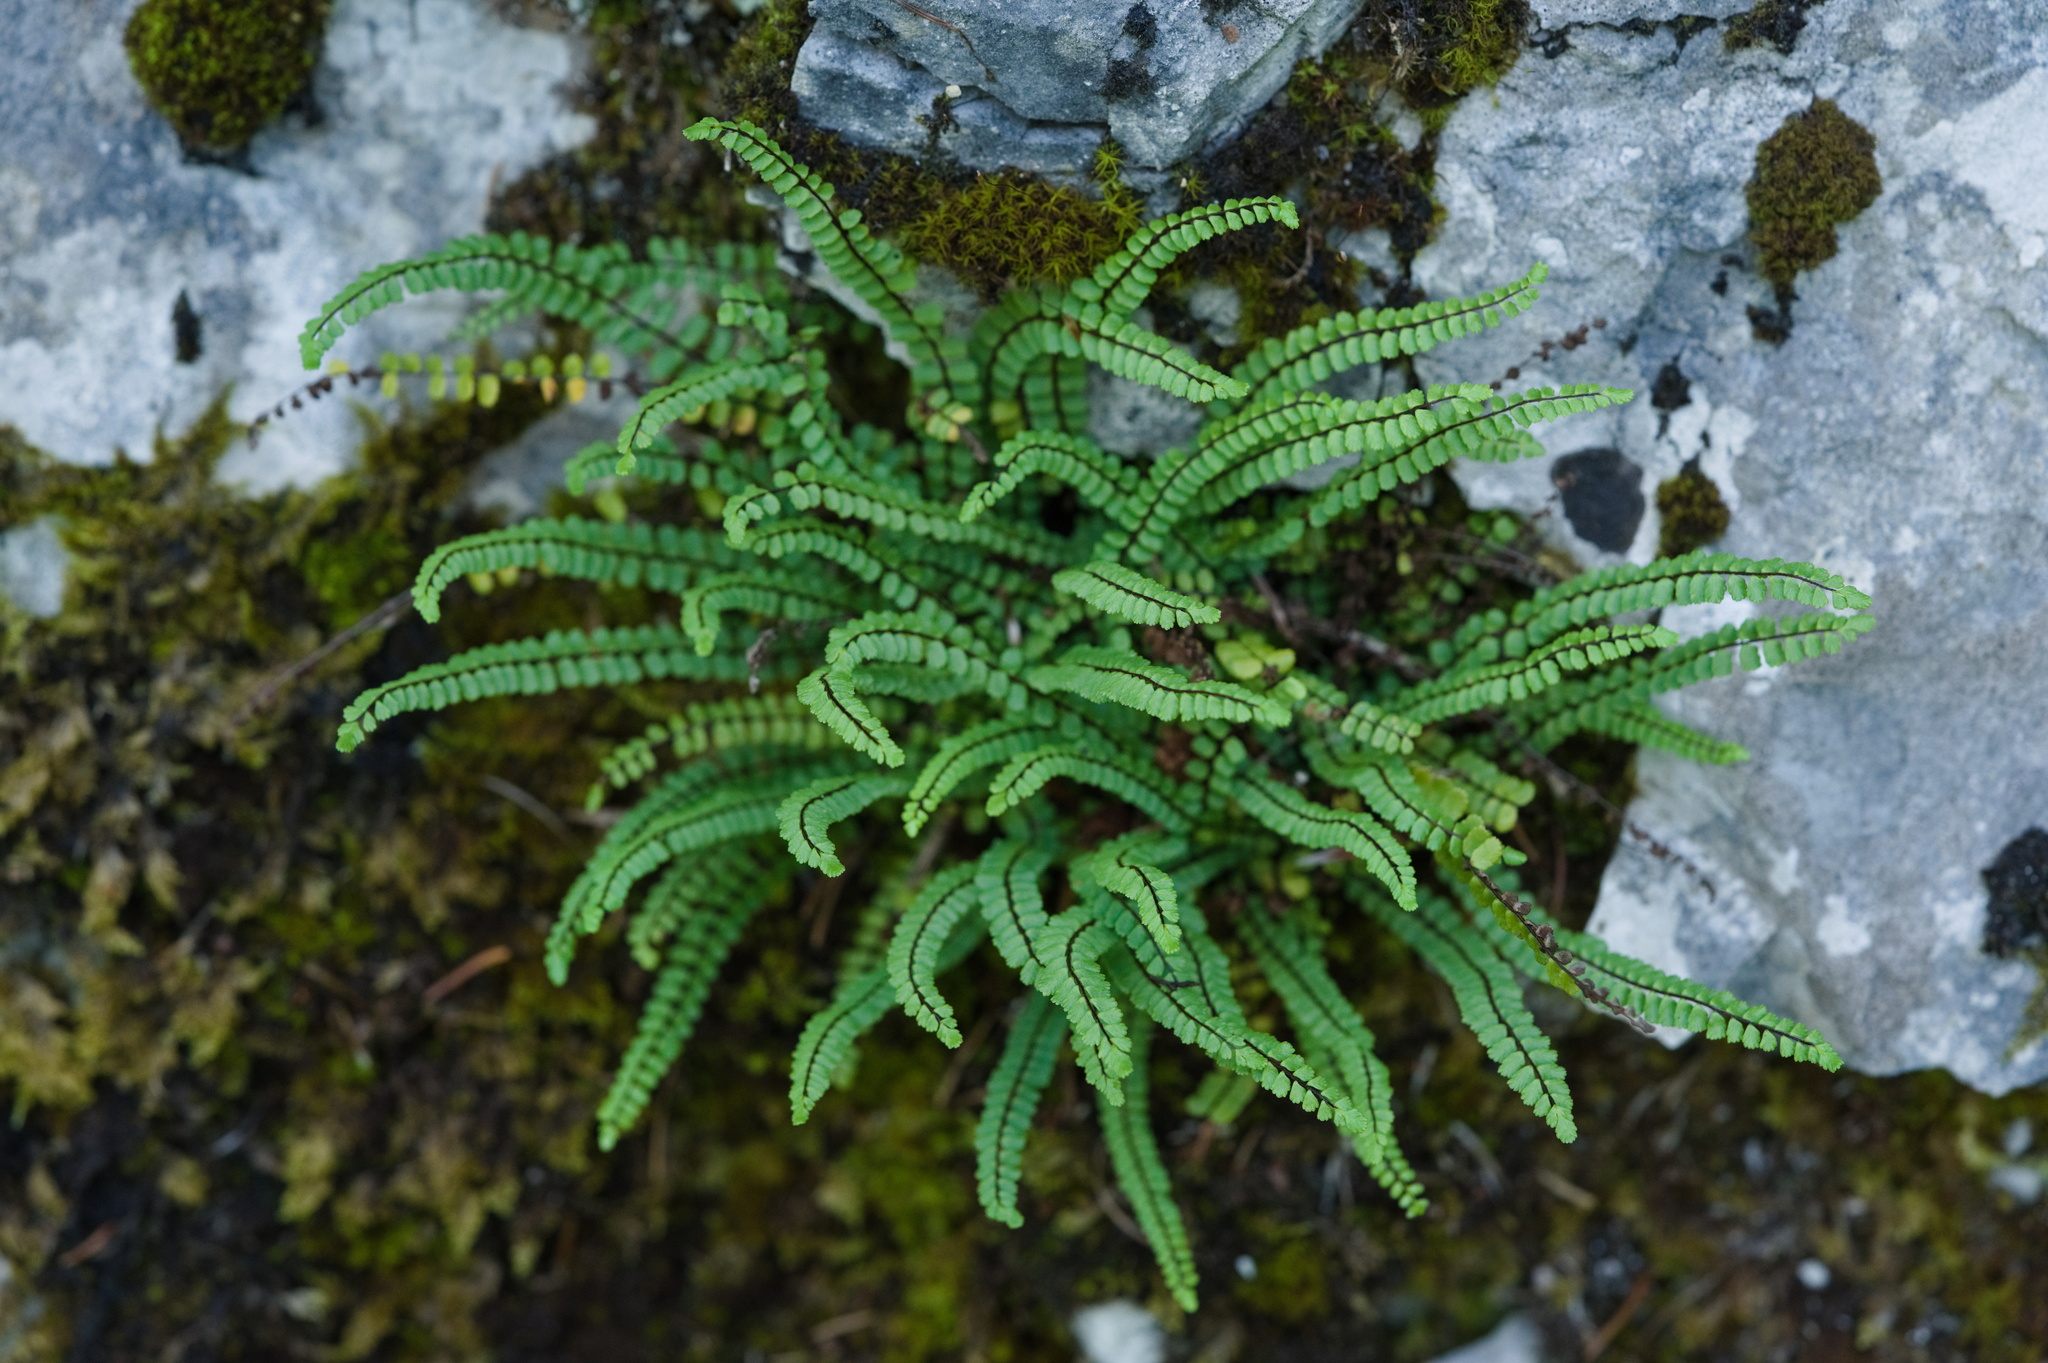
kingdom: Plantae
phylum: Tracheophyta
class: Polypodiopsida
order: Polypodiales
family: Aspleniaceae
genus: Asplenium
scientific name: Asplenium trichomanes
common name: Maidenhair spleenwort
